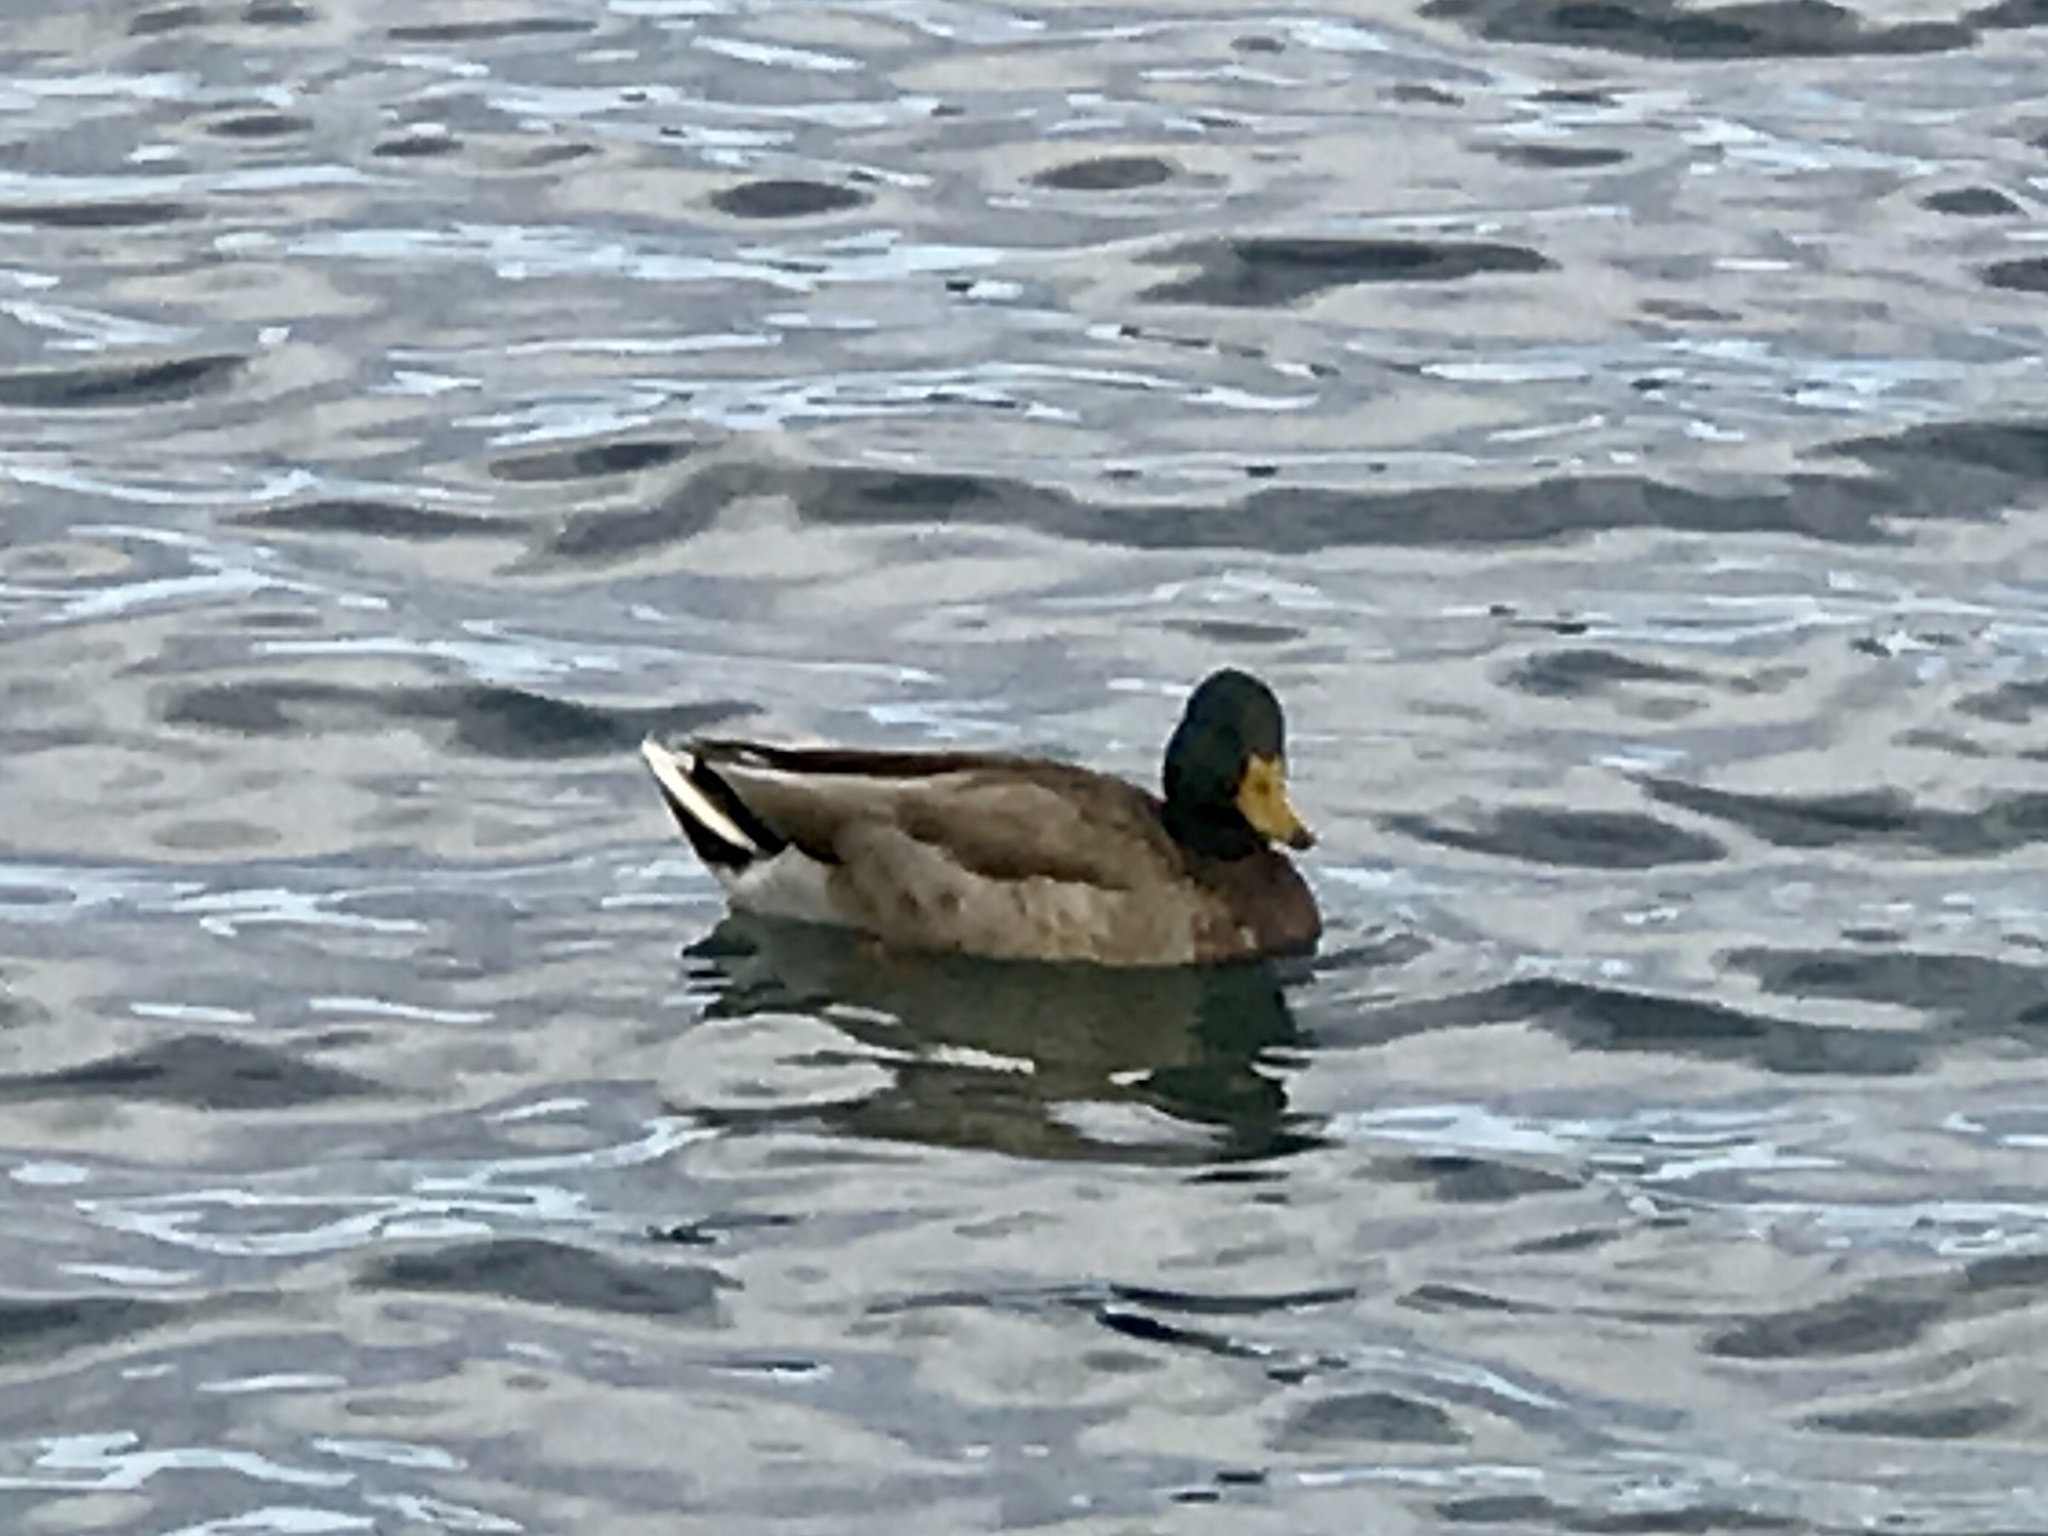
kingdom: Animalia
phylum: Chordata
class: Aves
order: Anseriformes
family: Anatidae
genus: Anas
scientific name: Anas platyrhynchos
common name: Mallard
